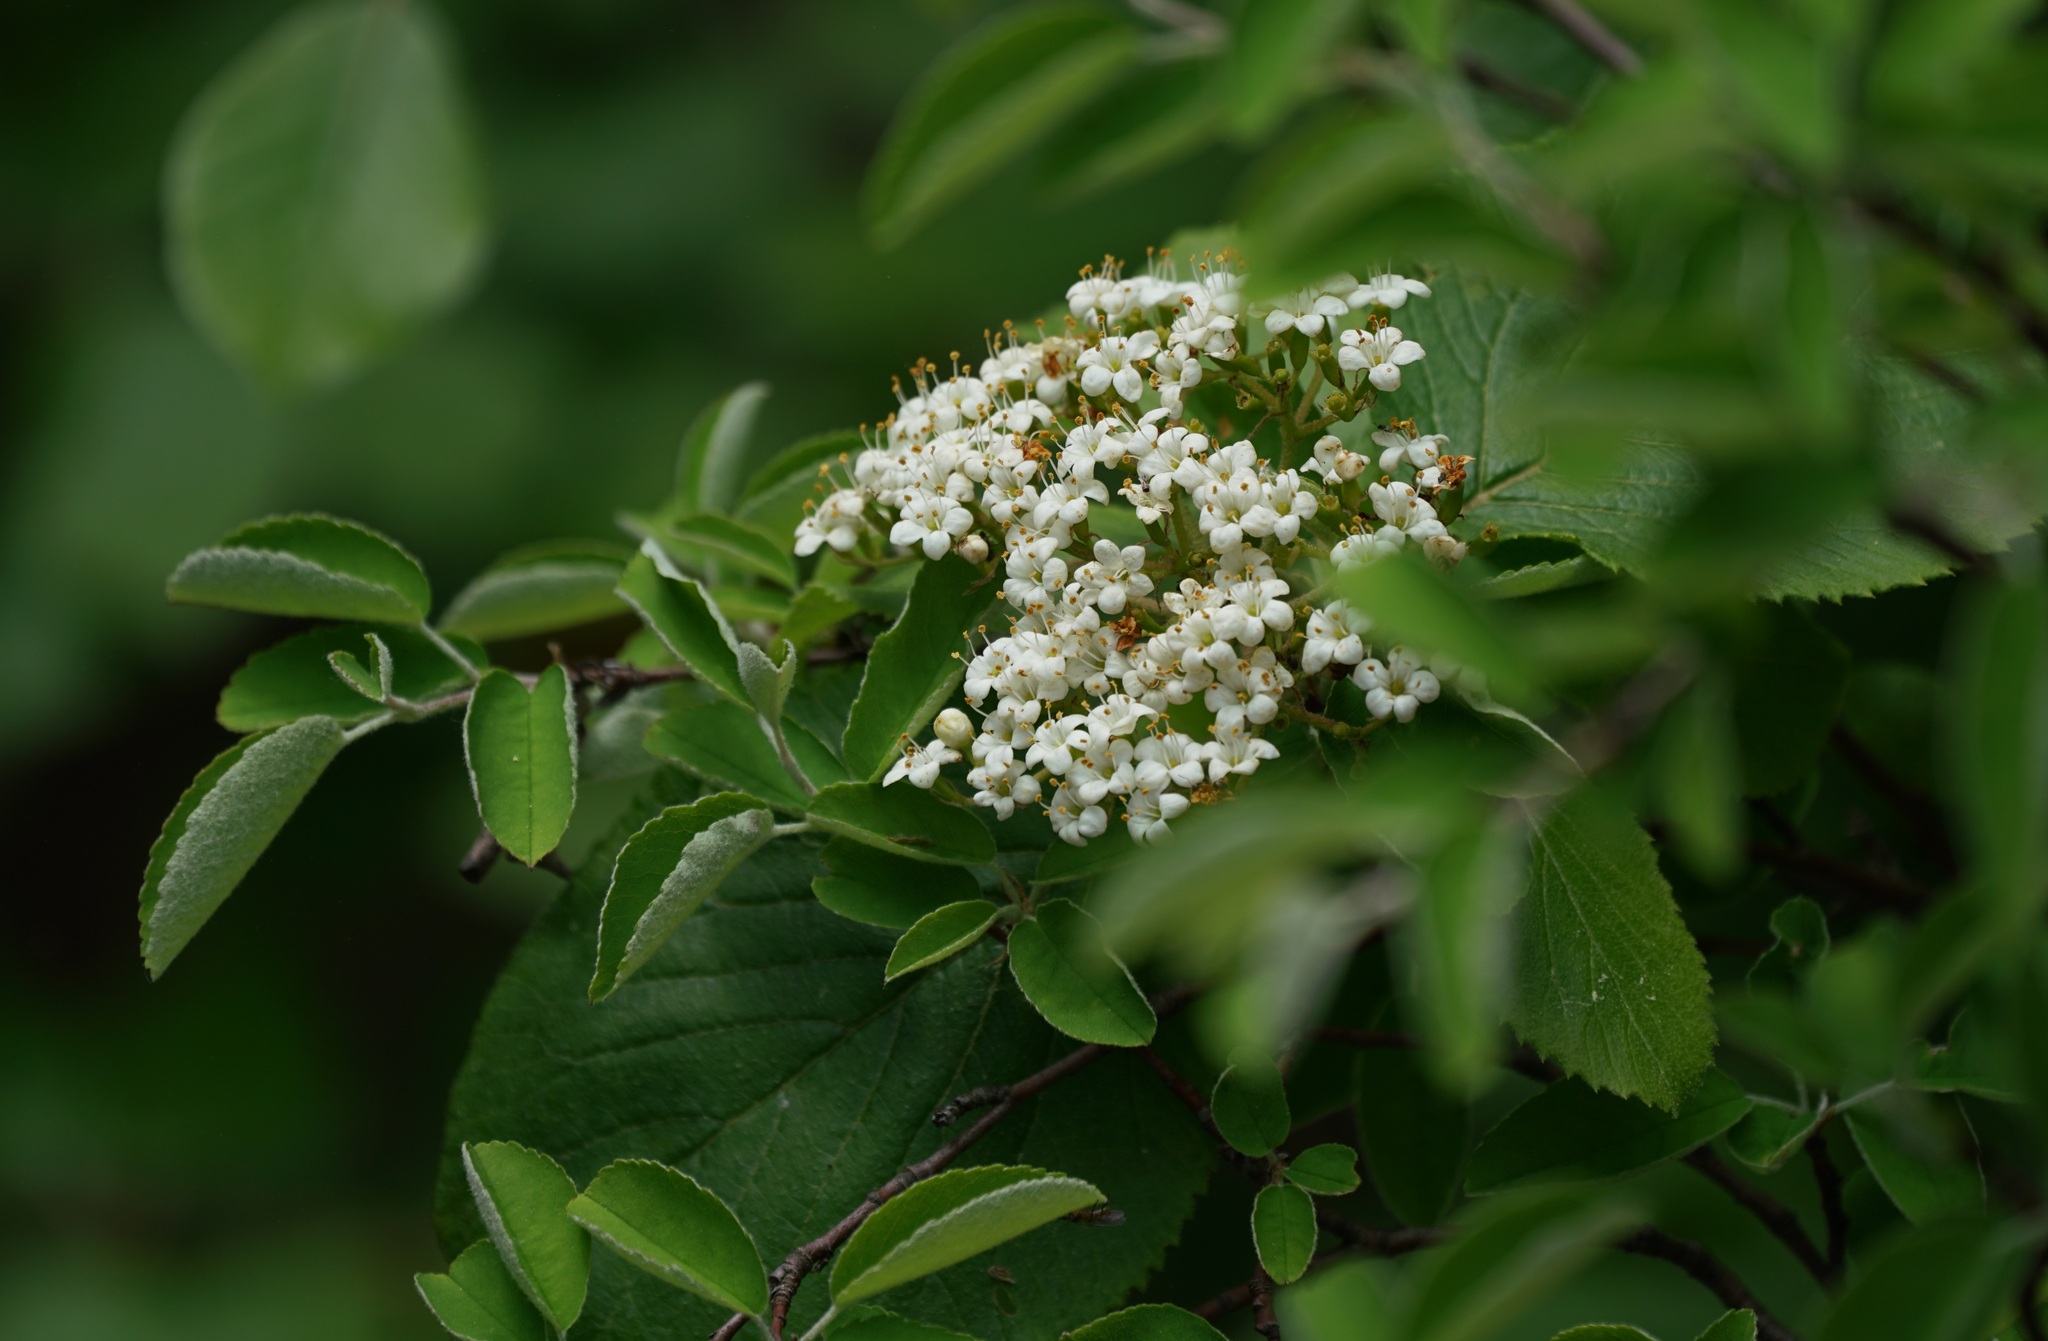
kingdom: Plantae
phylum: Tracheophyta
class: Magnoliopsida
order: Dipsacales
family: Viburnaceae
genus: Viburnum
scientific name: Viburnum lantana
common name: Wayfaring tree
